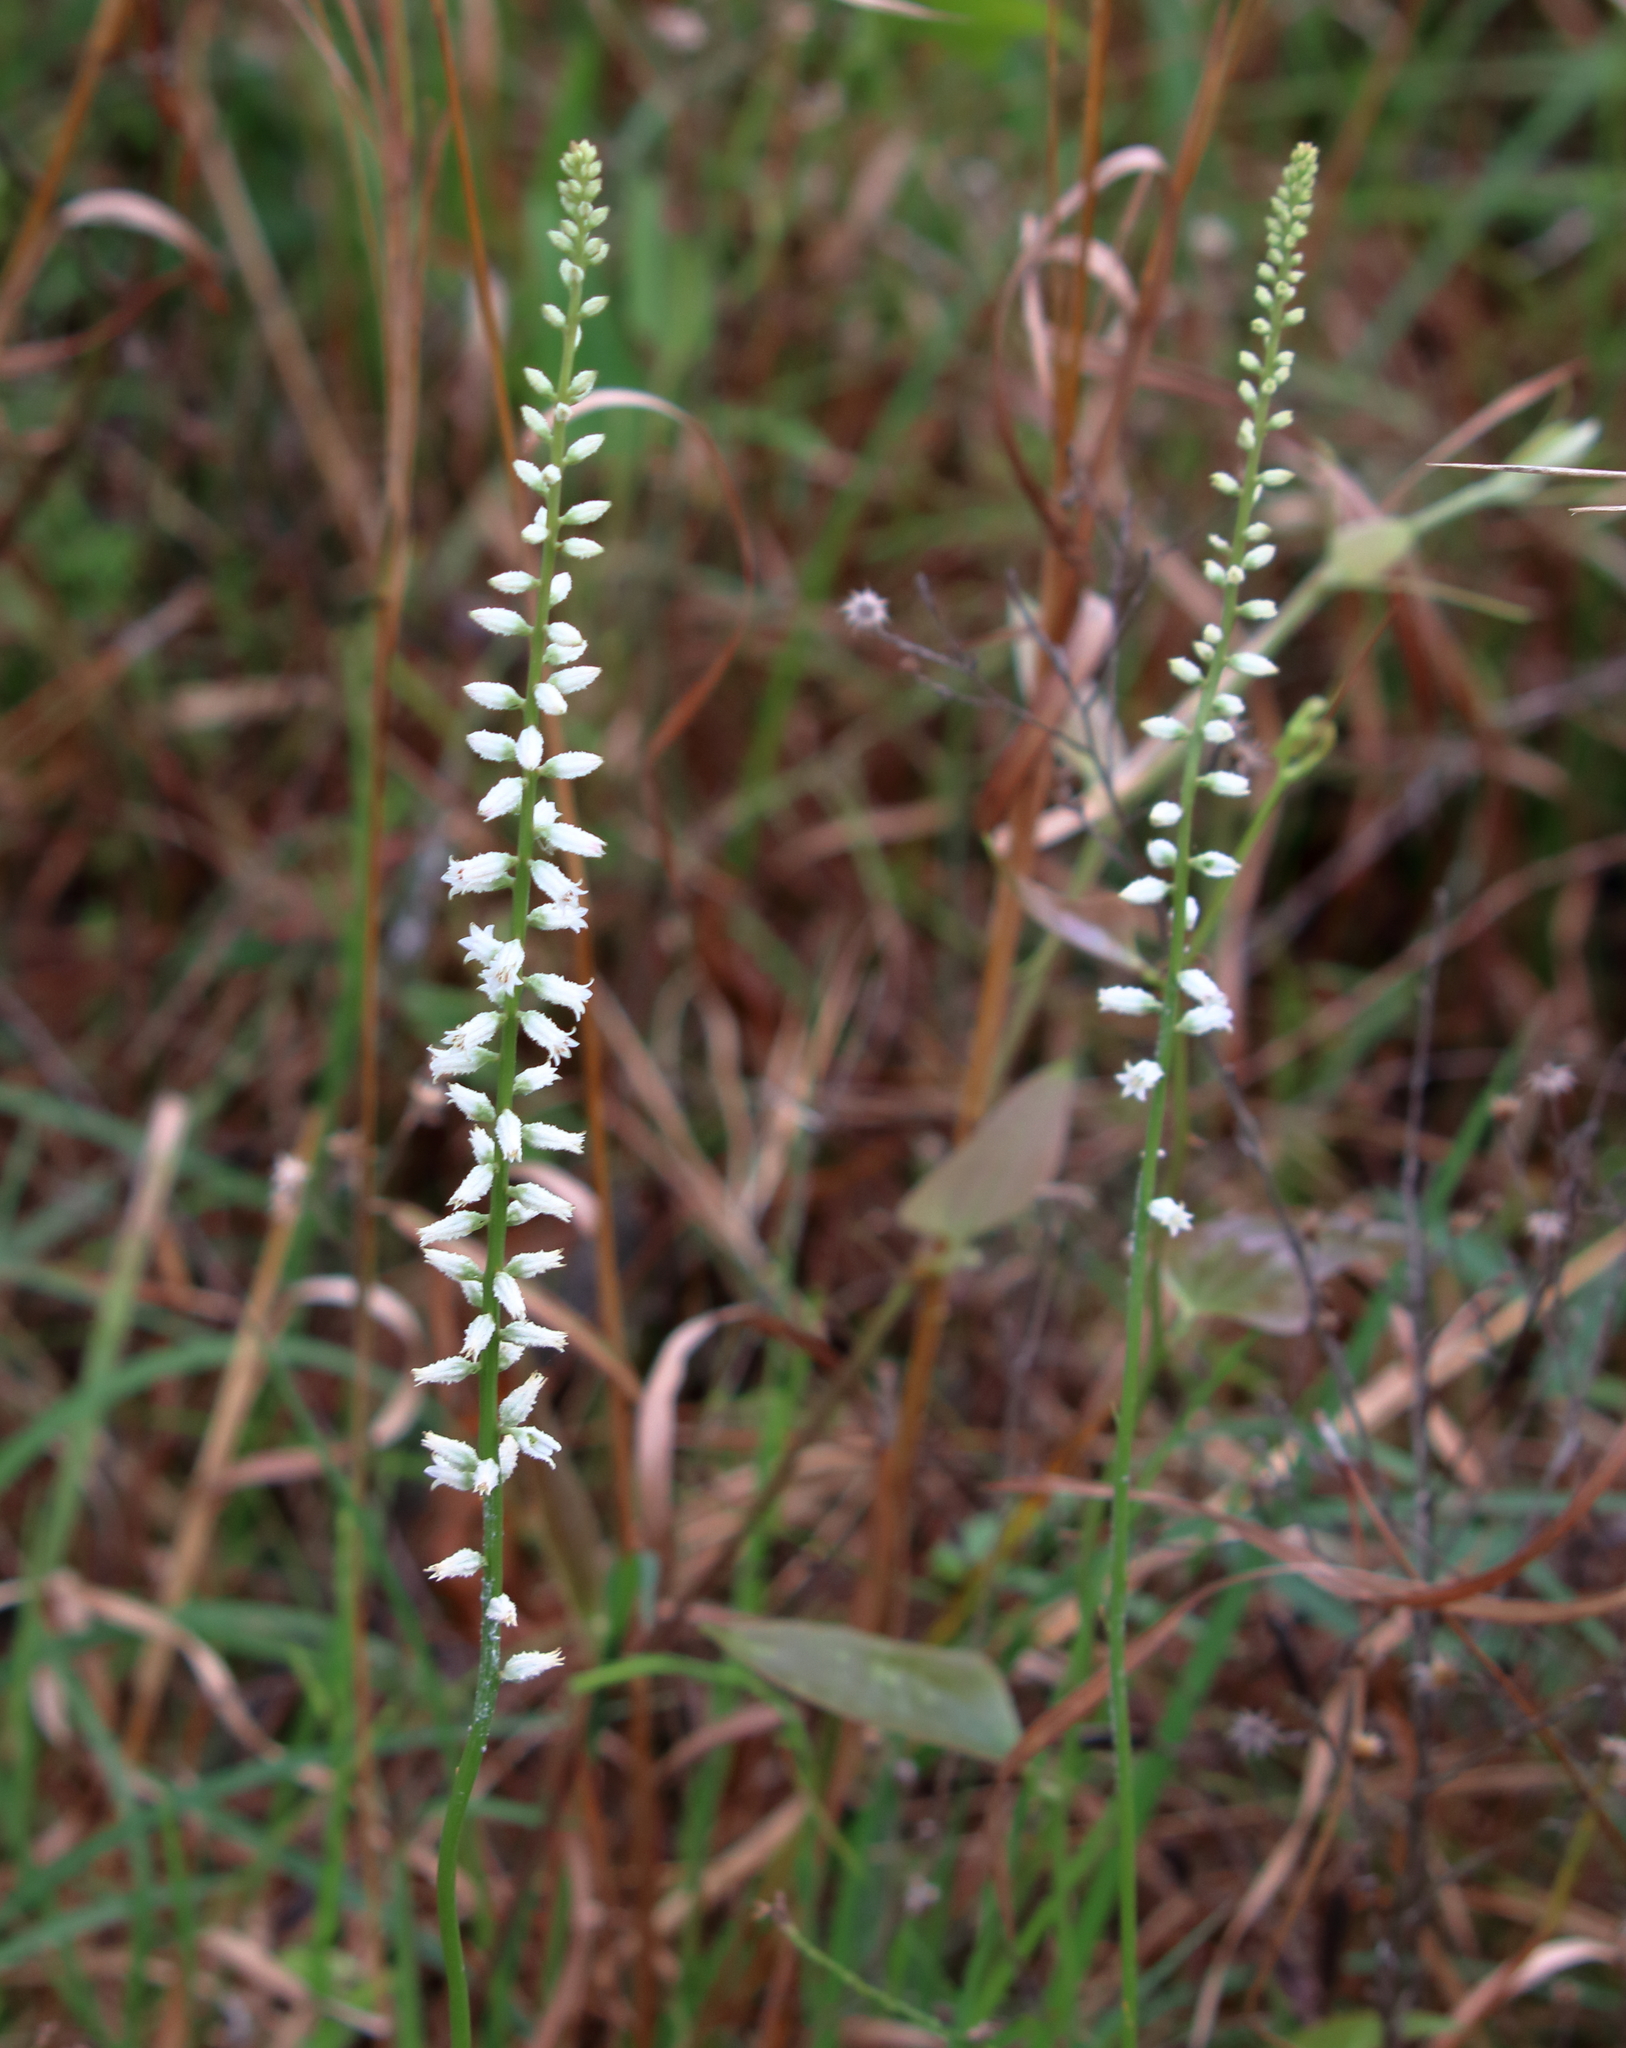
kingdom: Plantae
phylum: Tracheophyta
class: Liliopsida
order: Dioscoreales
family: Nartheciaceae
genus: Aletris
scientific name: Aletris farinosa
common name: Colicroot
